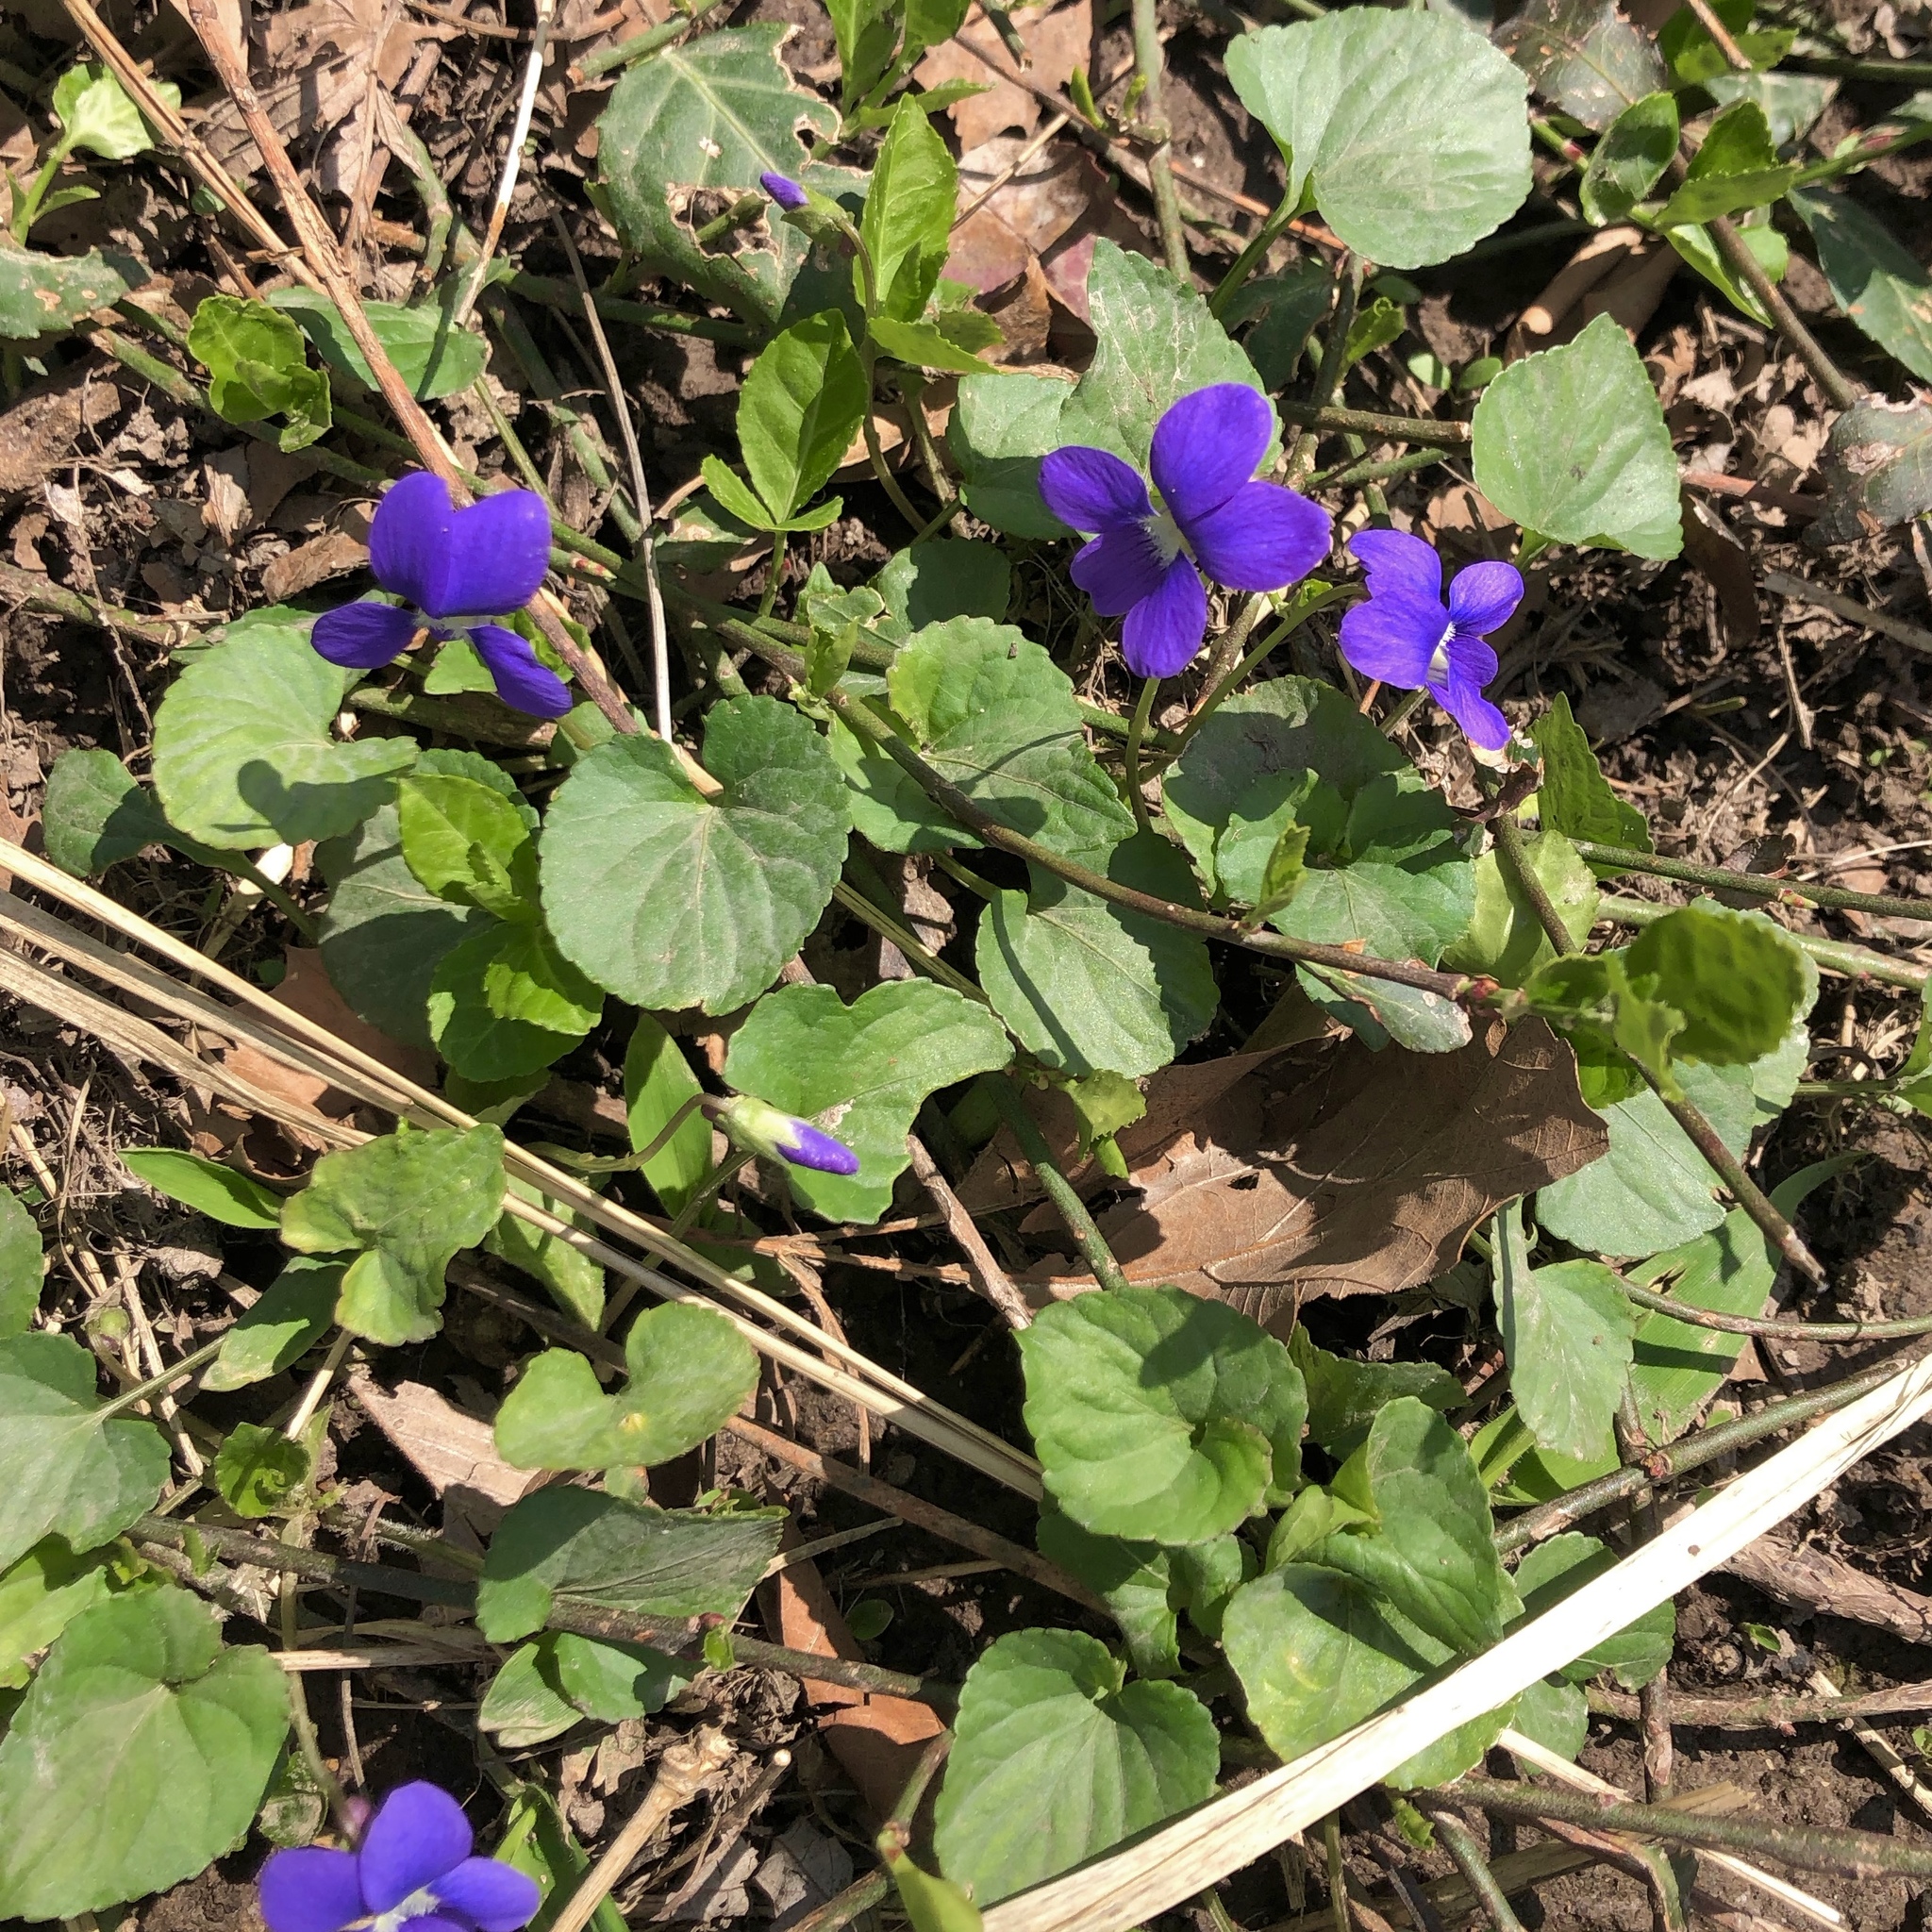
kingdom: Plantae
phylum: Tracheophyta
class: Magnoliopsida
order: Malpighiales
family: Violaceae
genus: Viola
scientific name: Viola sororia
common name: Dooryard violet
